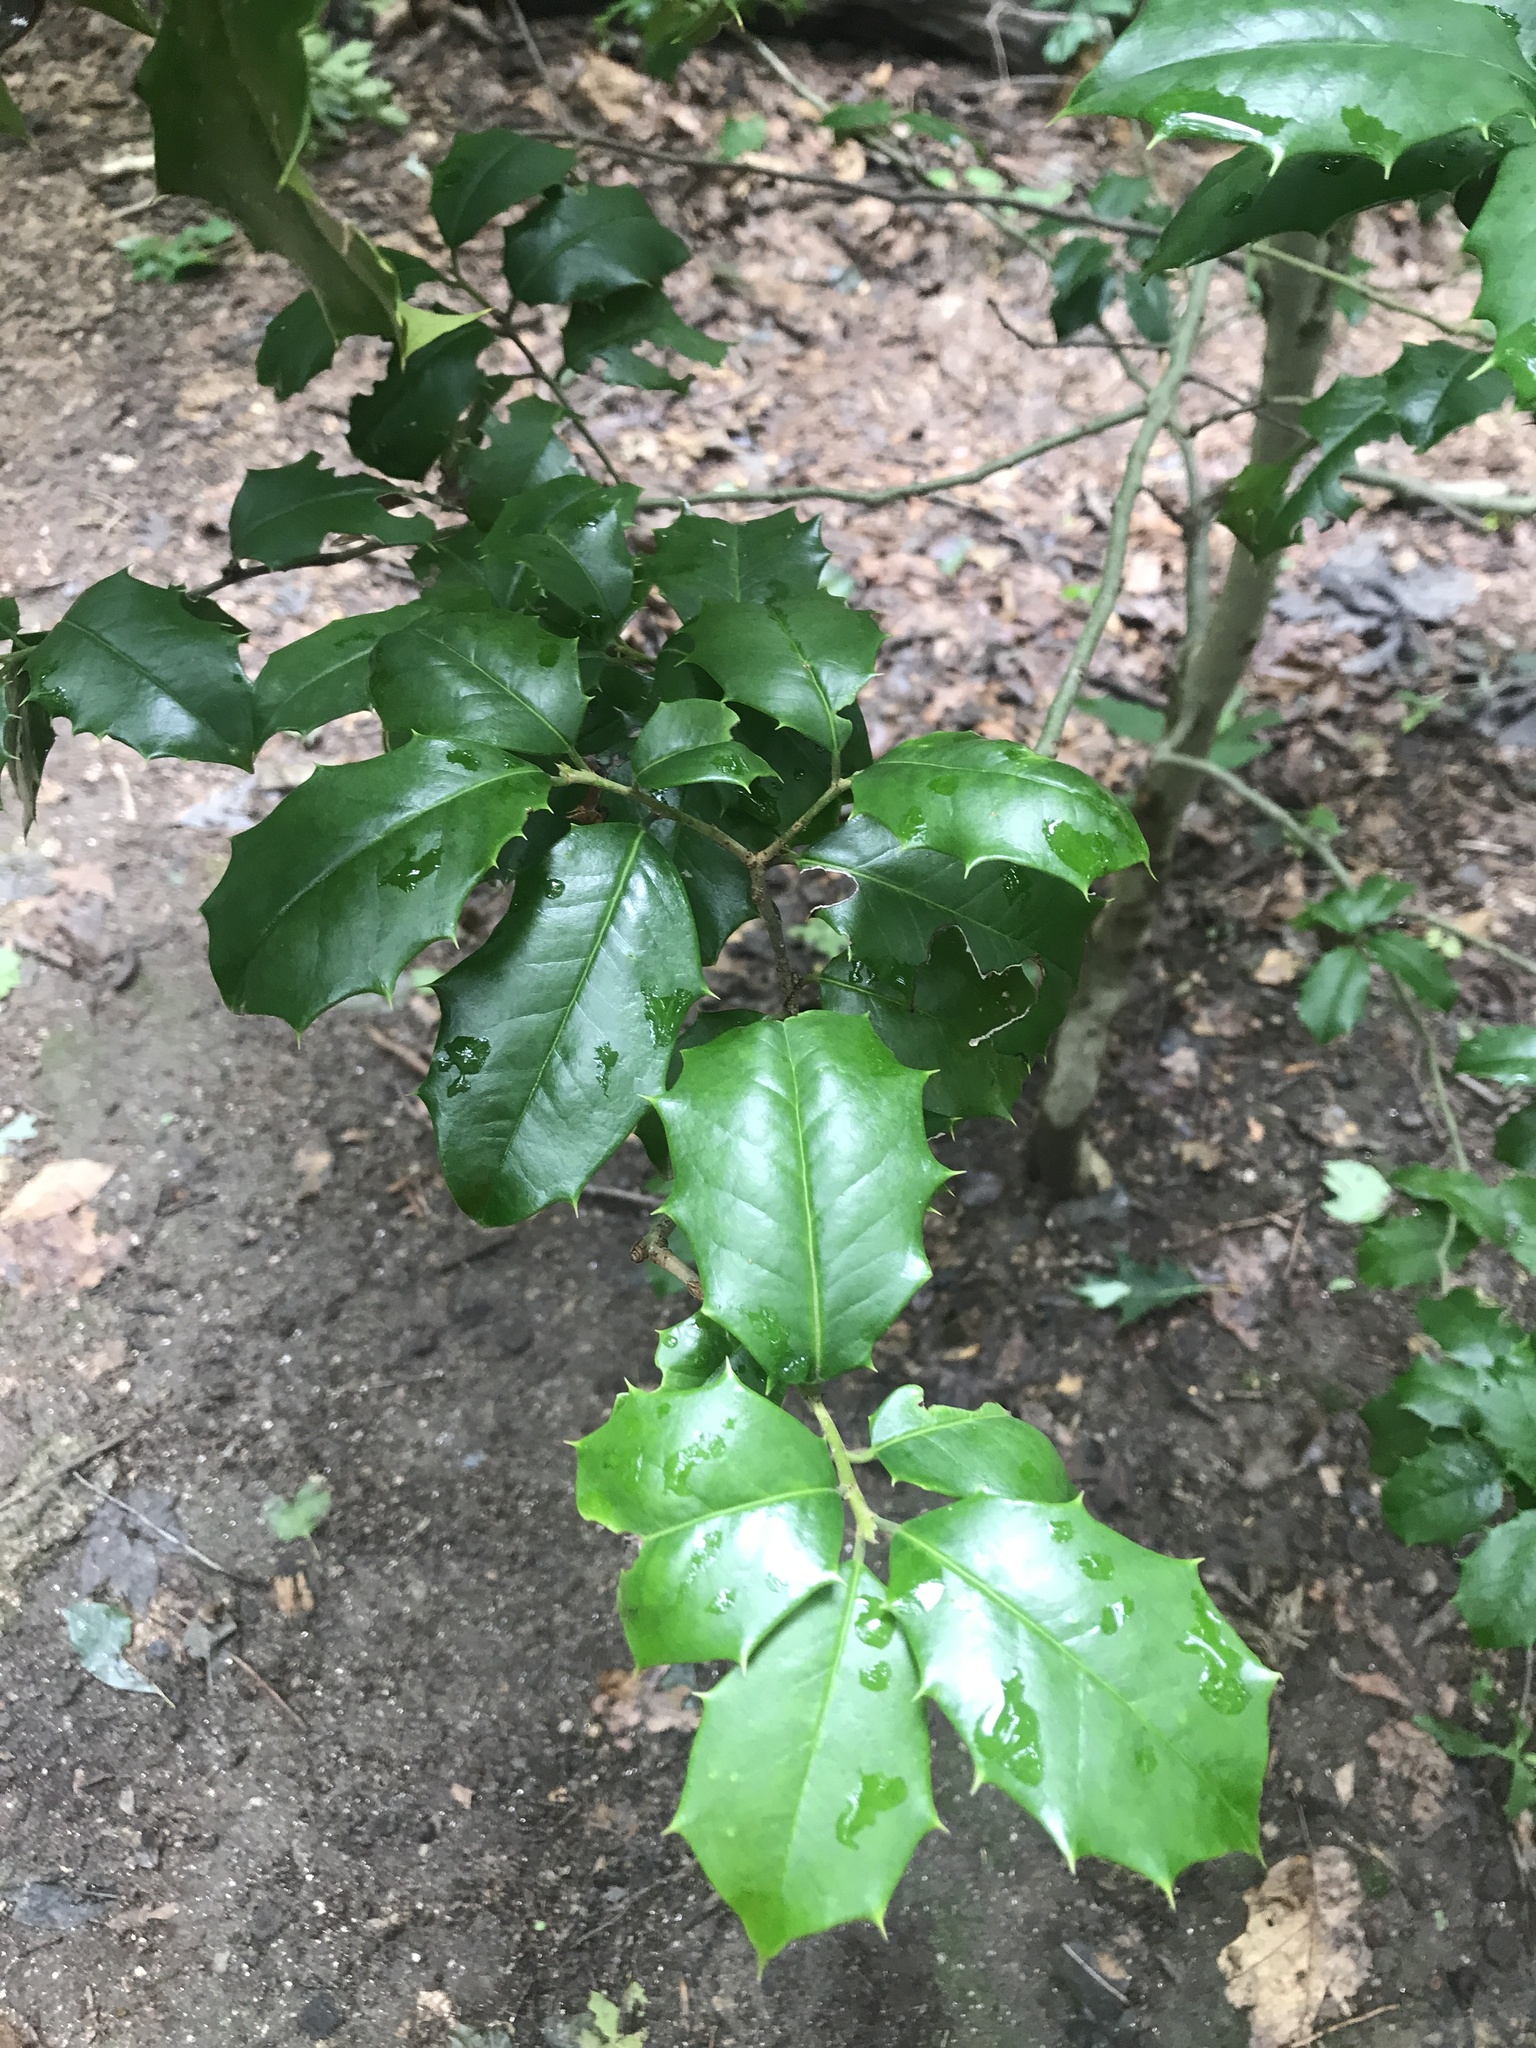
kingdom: Plantae
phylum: Tracheophyta
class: Magnoliopsida
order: Aquifoliales
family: Aquifoliaceae
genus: Ilex
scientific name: Ilex opaca
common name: American holly
